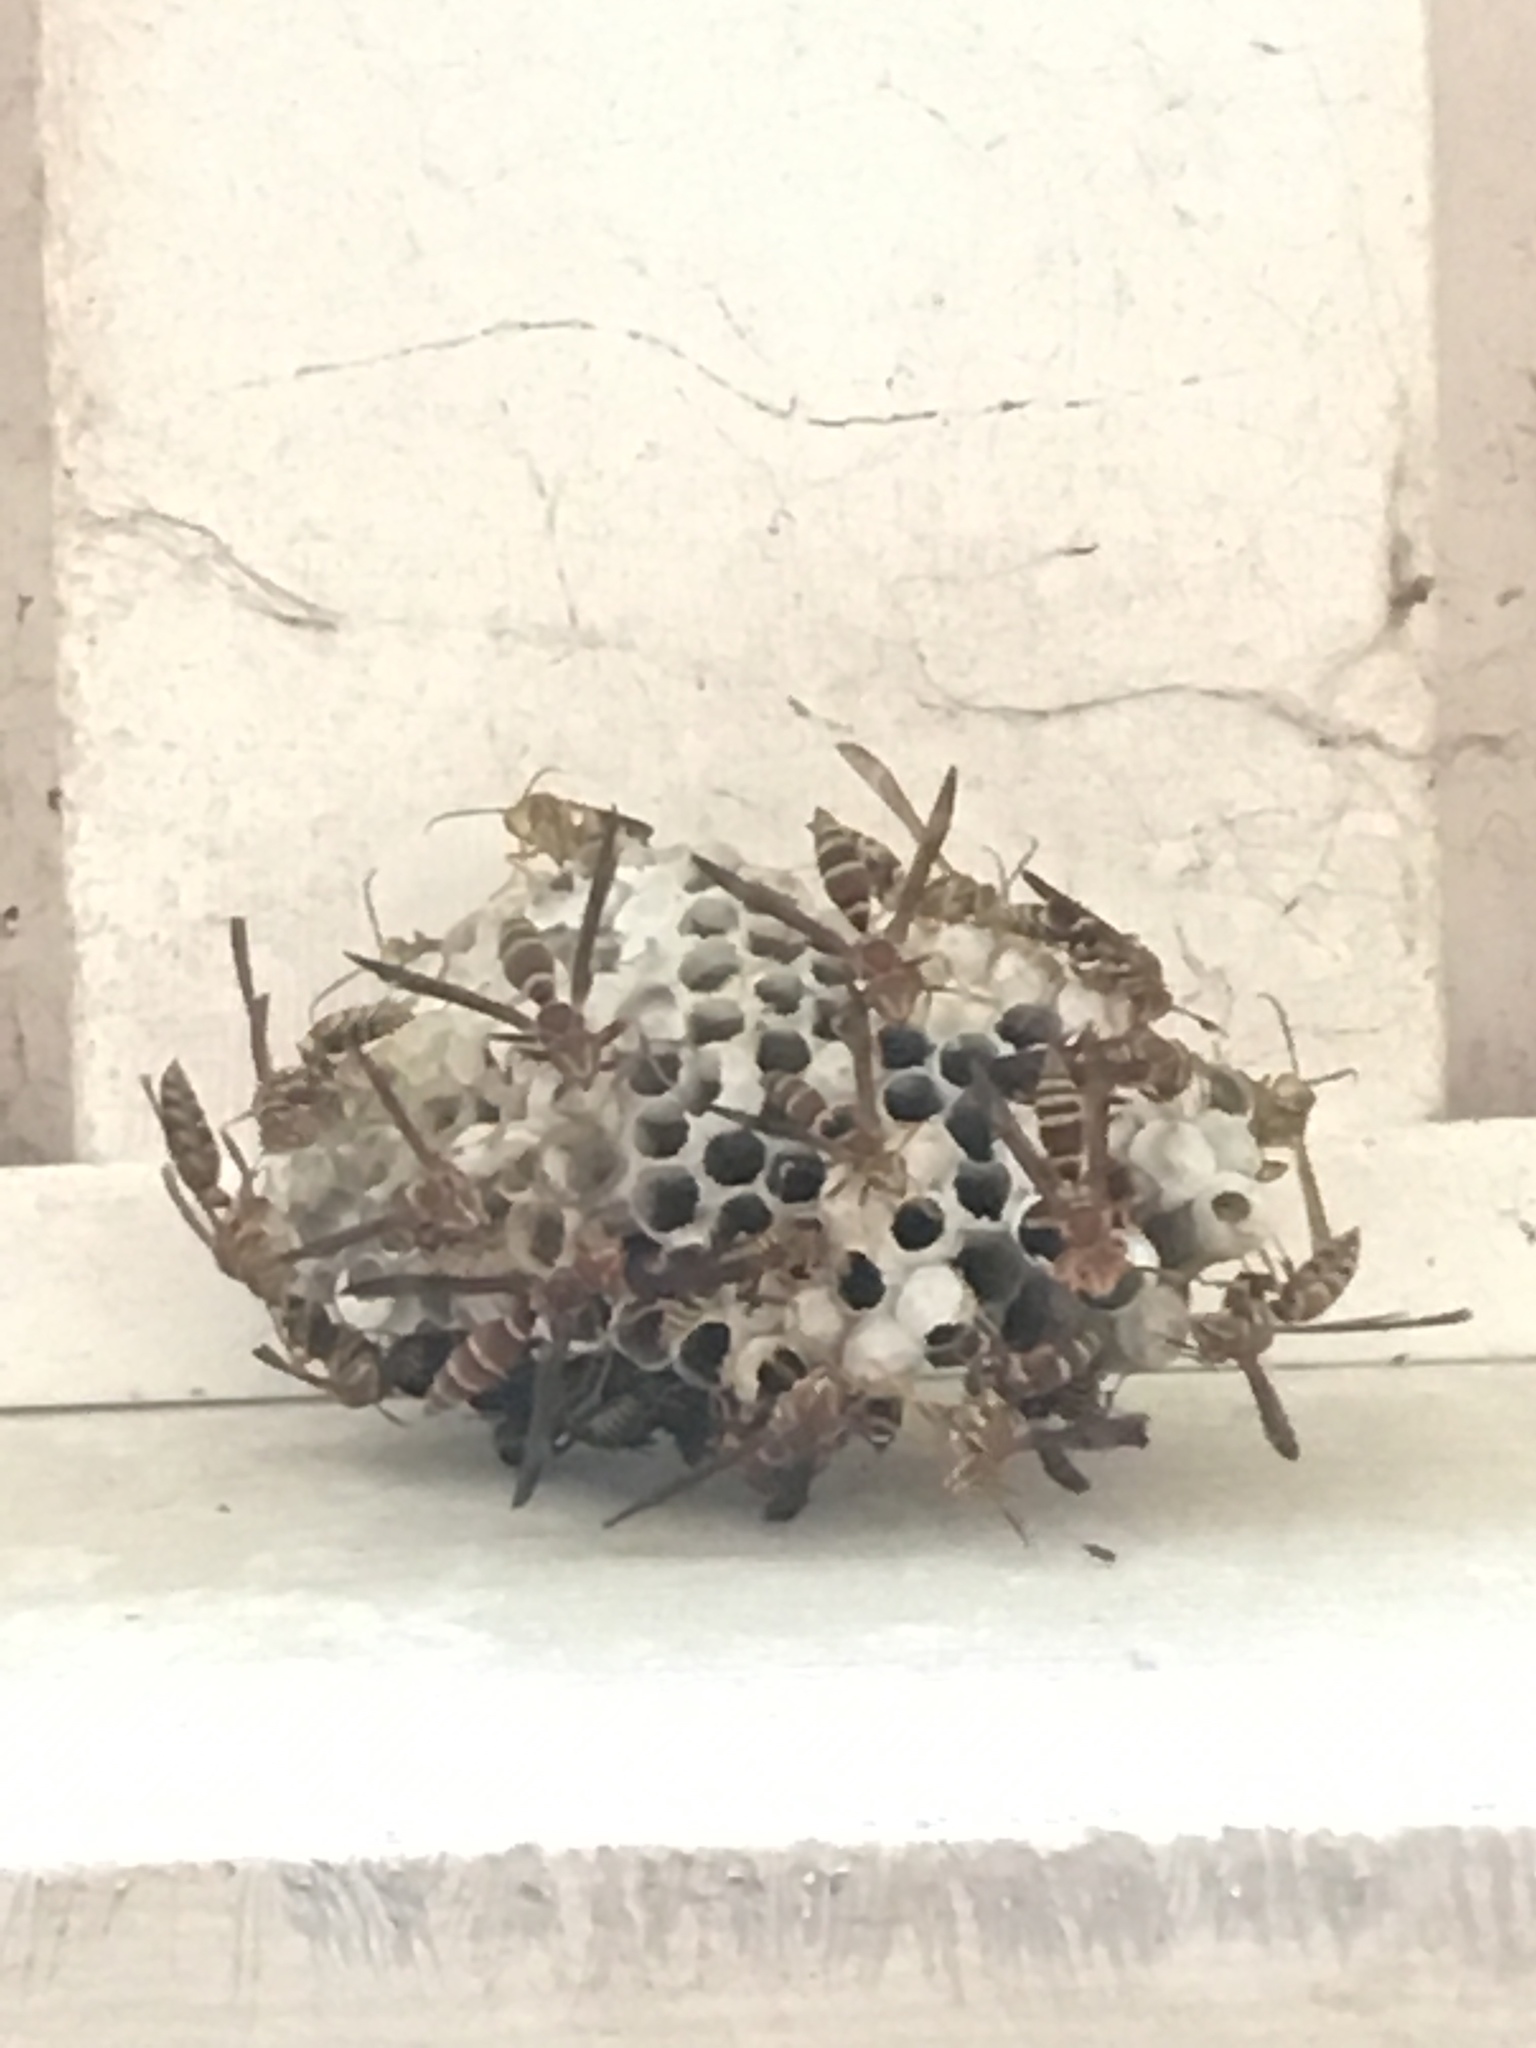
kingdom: Animalia
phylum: Arthropoda
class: Insecta
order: Hymenoptera
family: Eumenidae
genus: Polistes
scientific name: Polistes exclamans
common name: Paper wasp
